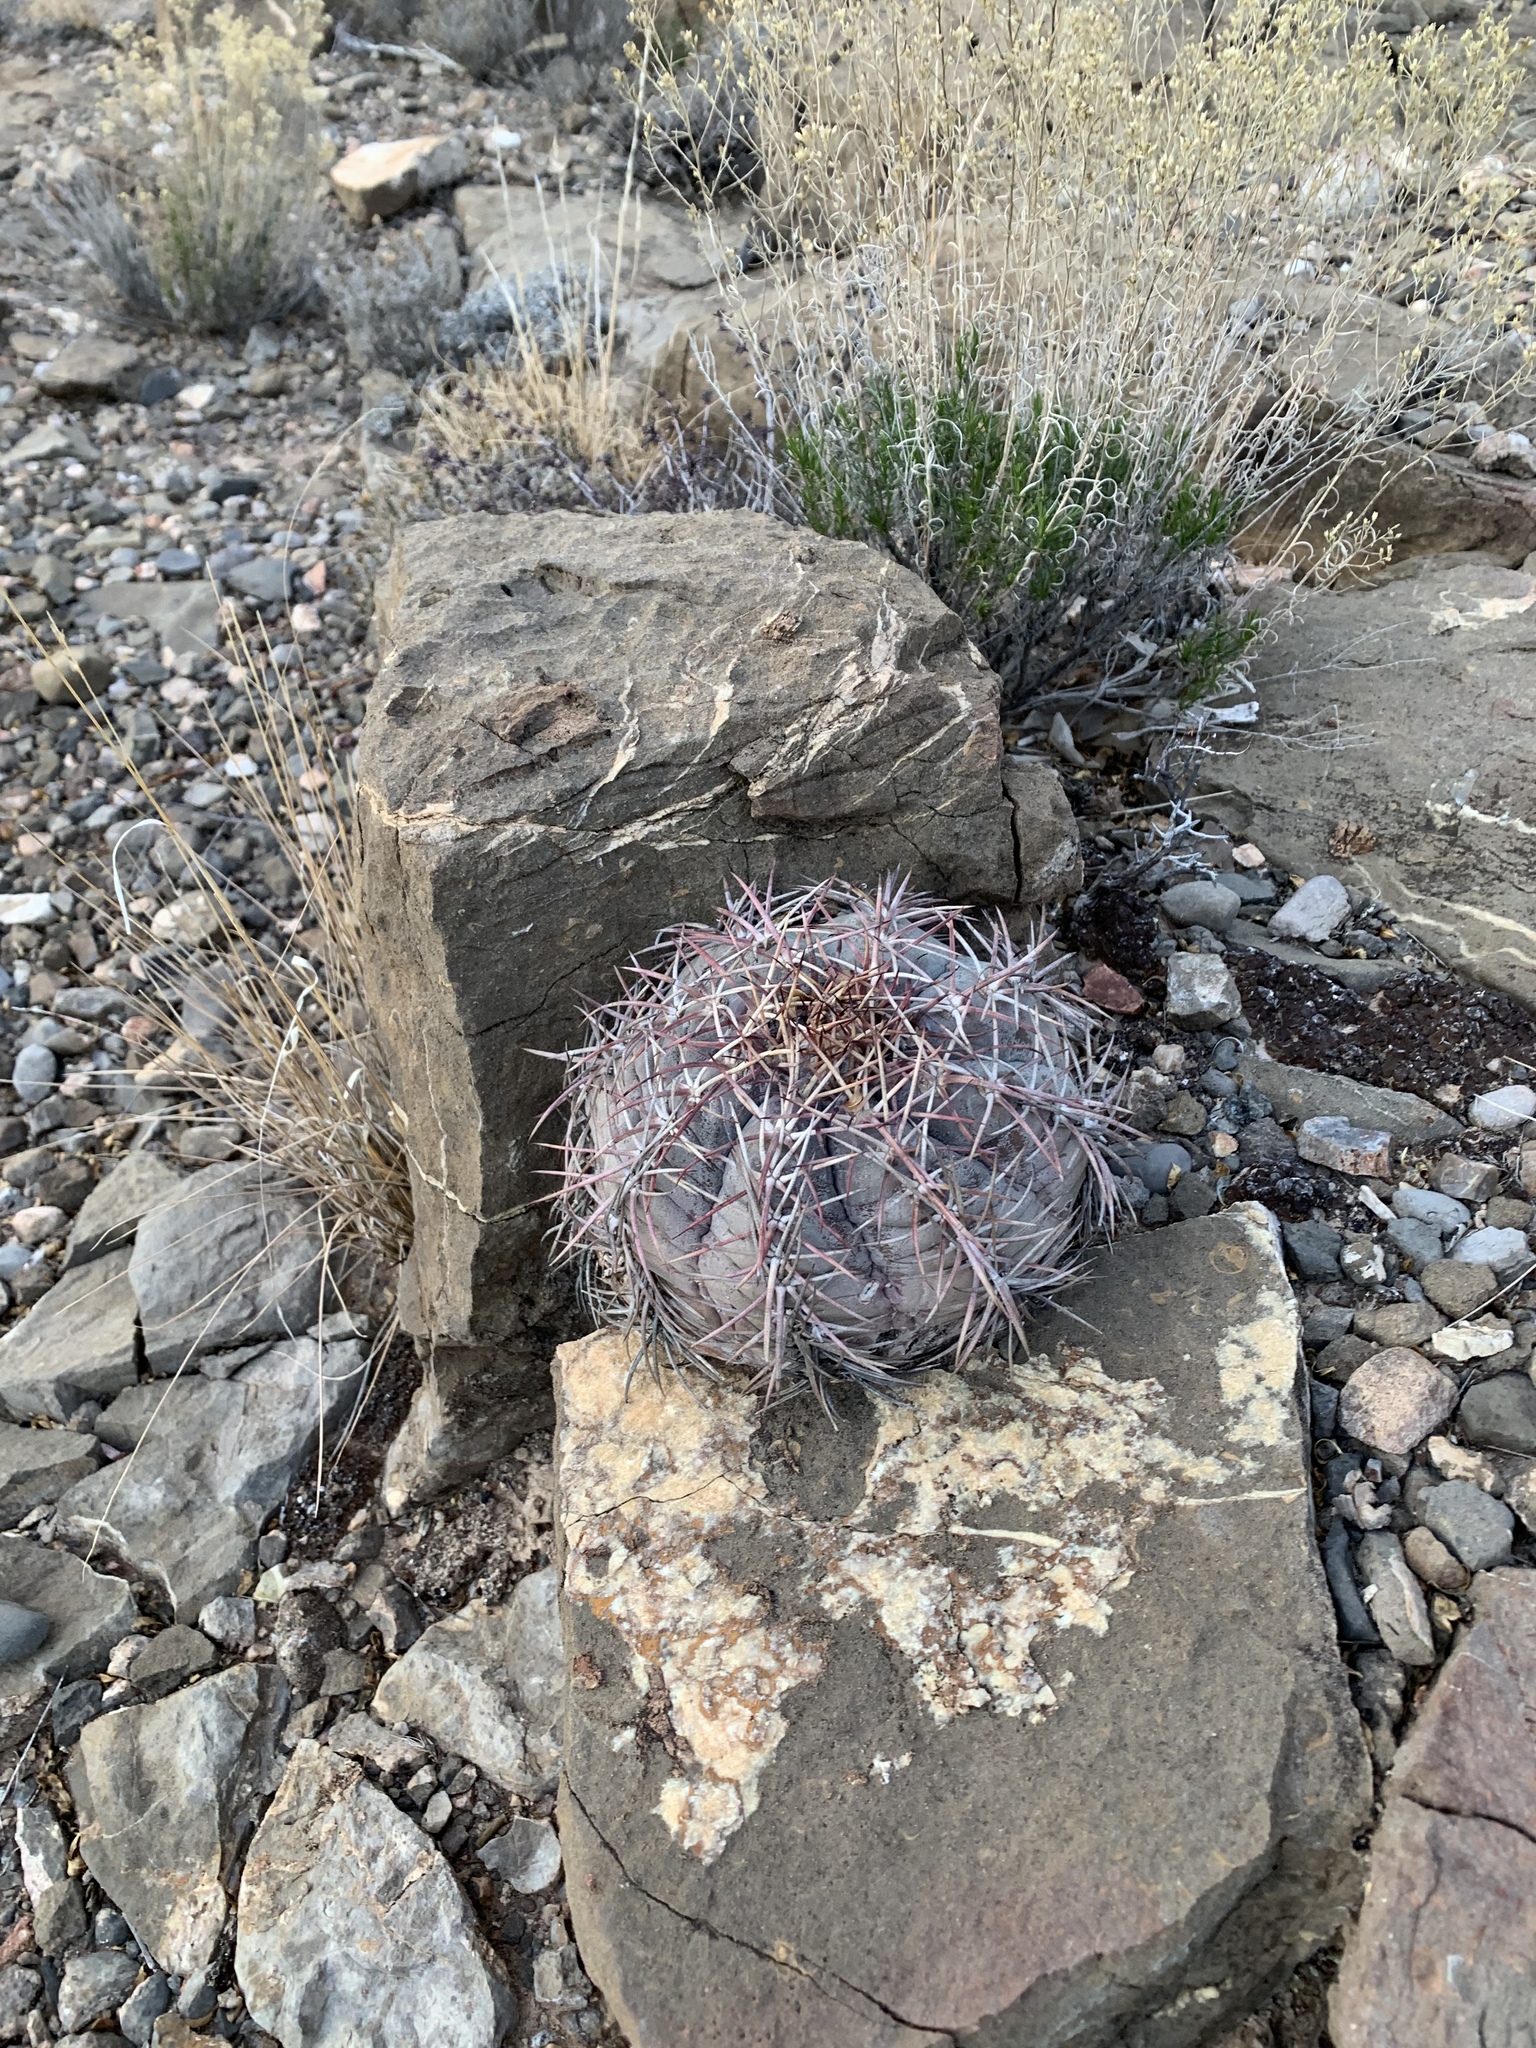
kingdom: Plantae
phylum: Tracheophyta
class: Magnoliopsida
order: Caryophyllales
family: Cactaceae
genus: Echinocactus
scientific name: Echinocactus horizonthalonius
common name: Devilshead
